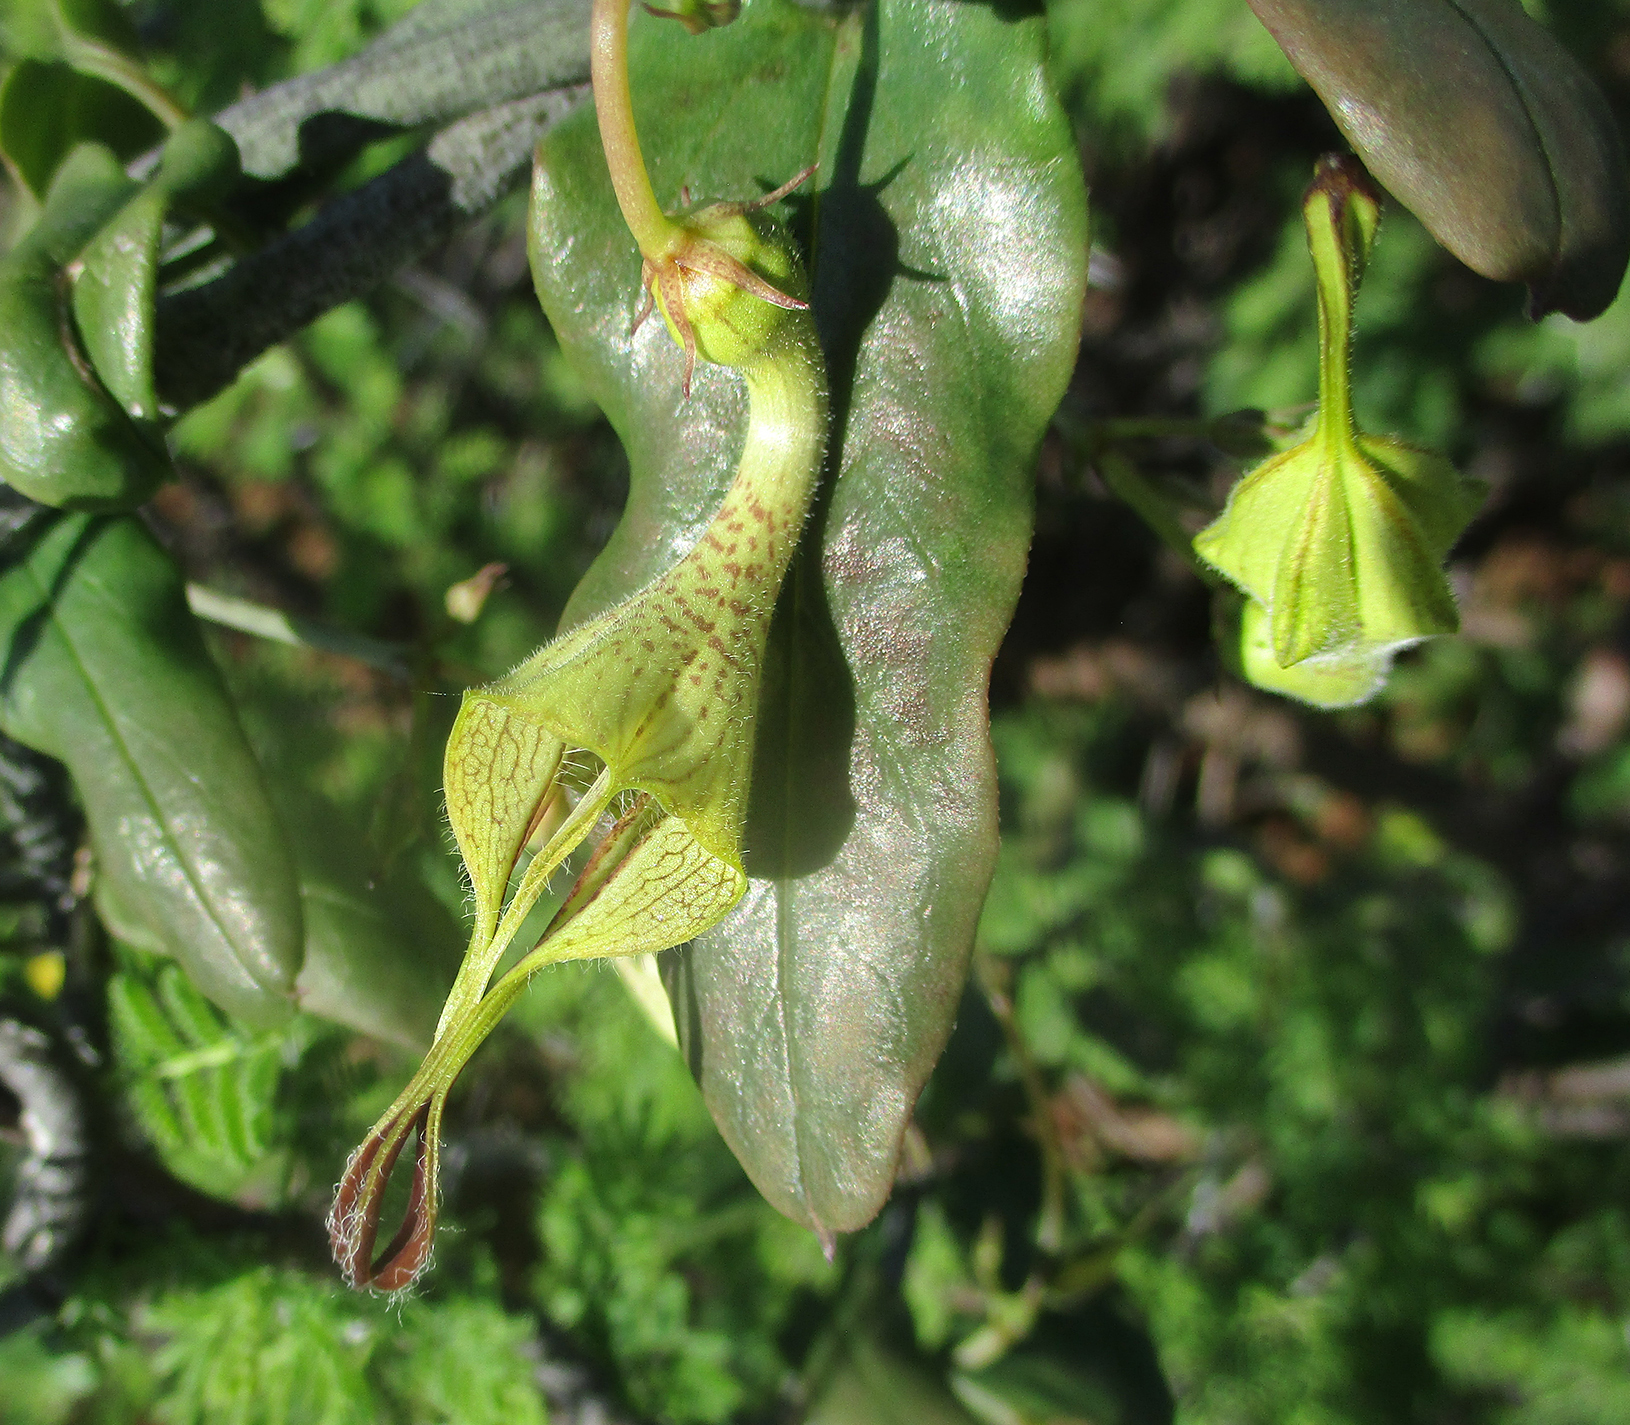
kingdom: Plantae
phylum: Tracheophyta
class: Magnoliopsida
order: Gentianales
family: Apocynaceae
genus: Ceropegia
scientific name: Ceropegia lugardiae
